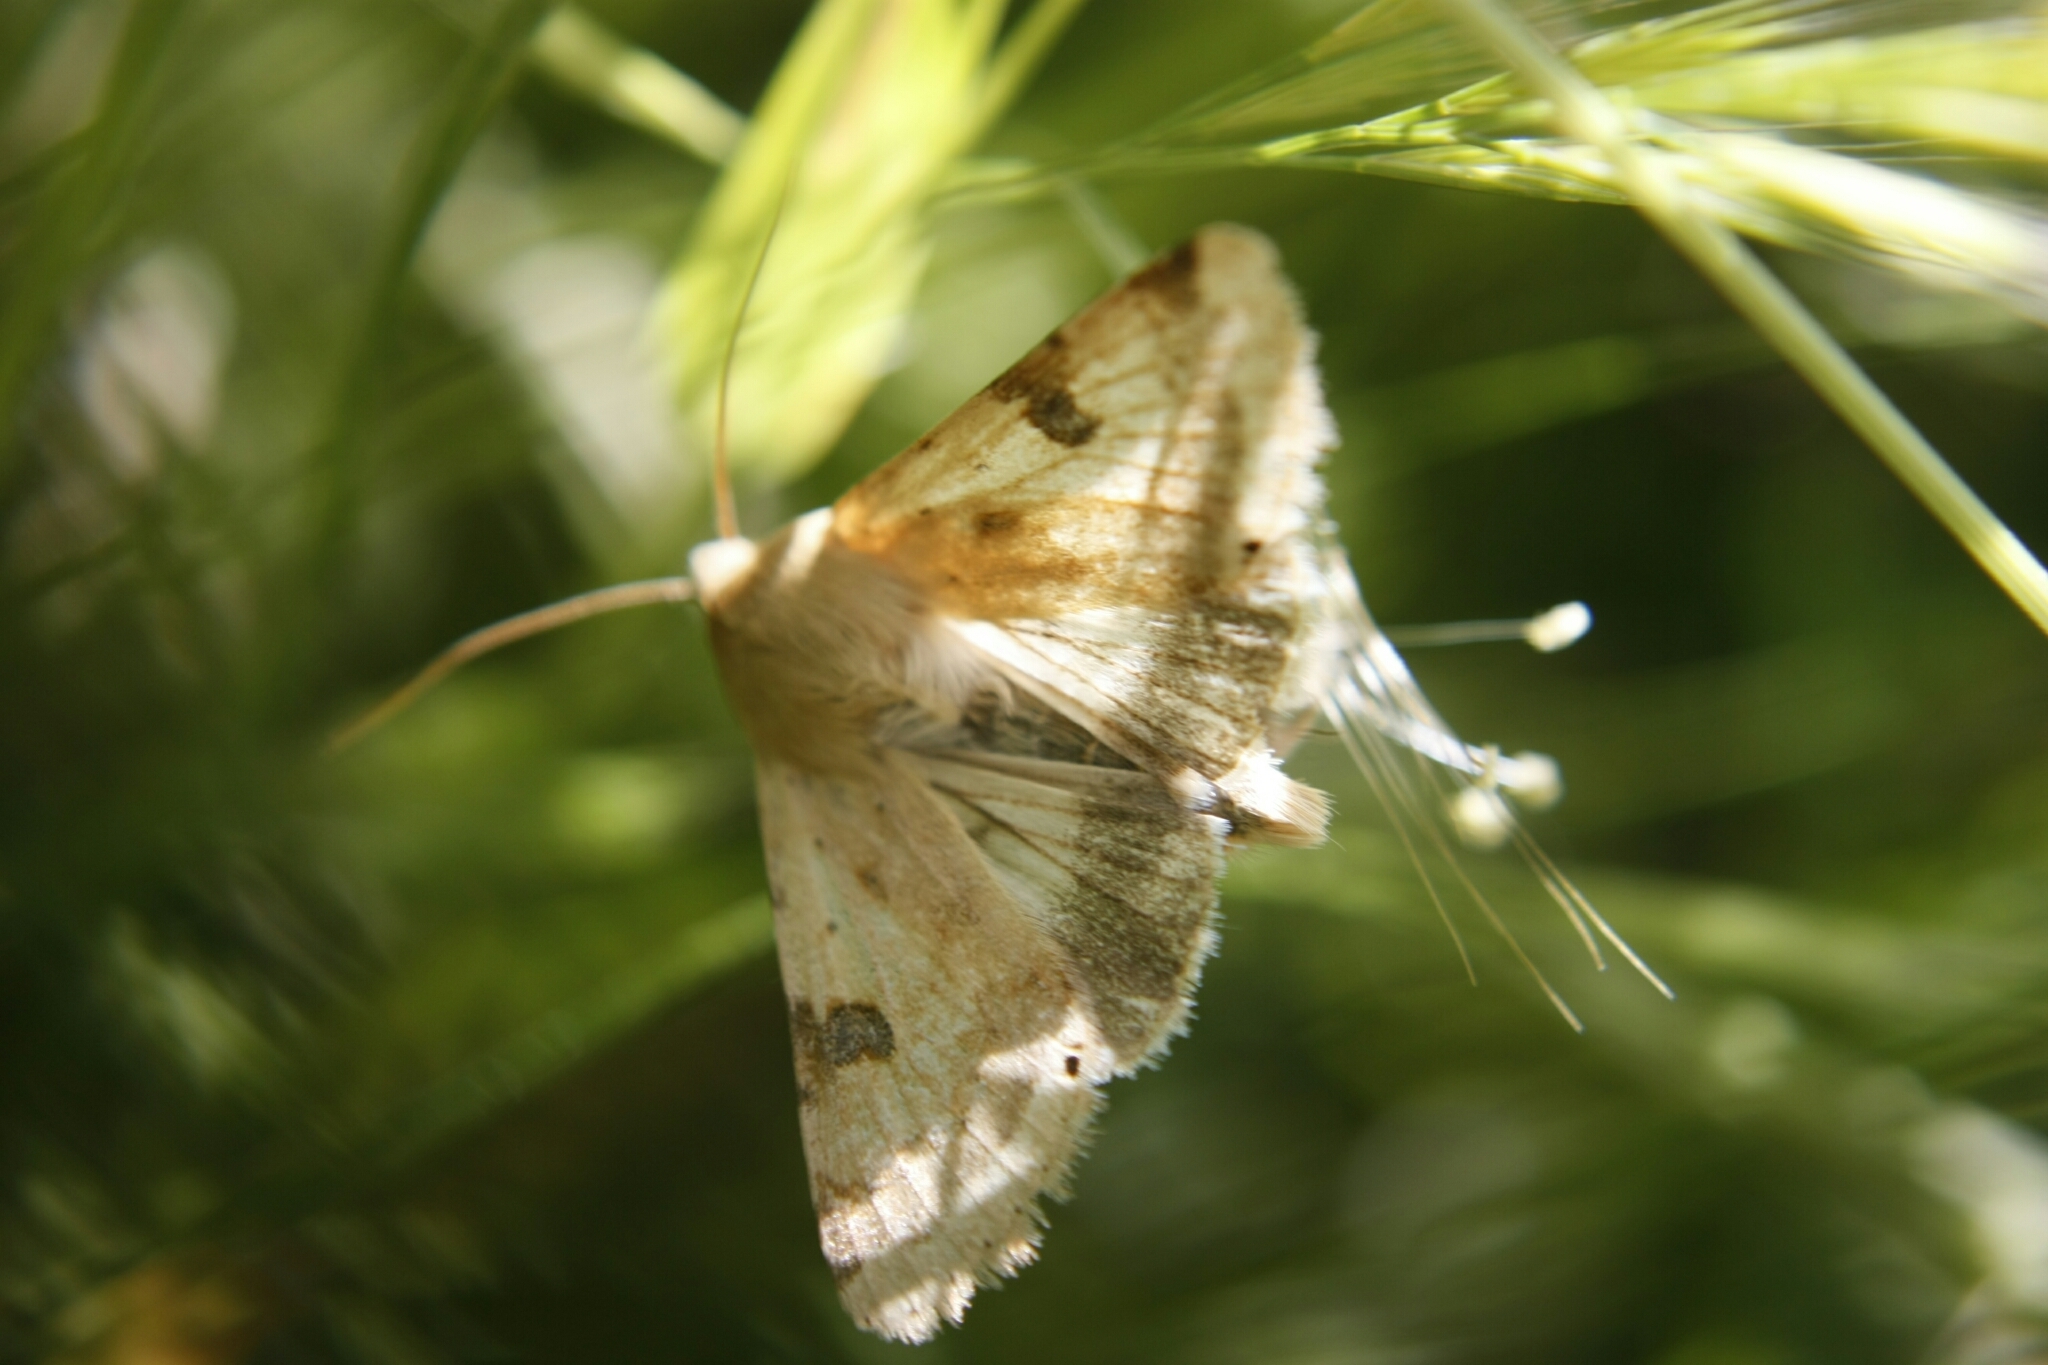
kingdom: Animalia
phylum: Arthropoda
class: Insecta
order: Lepidoptera
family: Noctuidae
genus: Heliothis
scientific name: Heliothis peltigera
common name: Bordered straw
